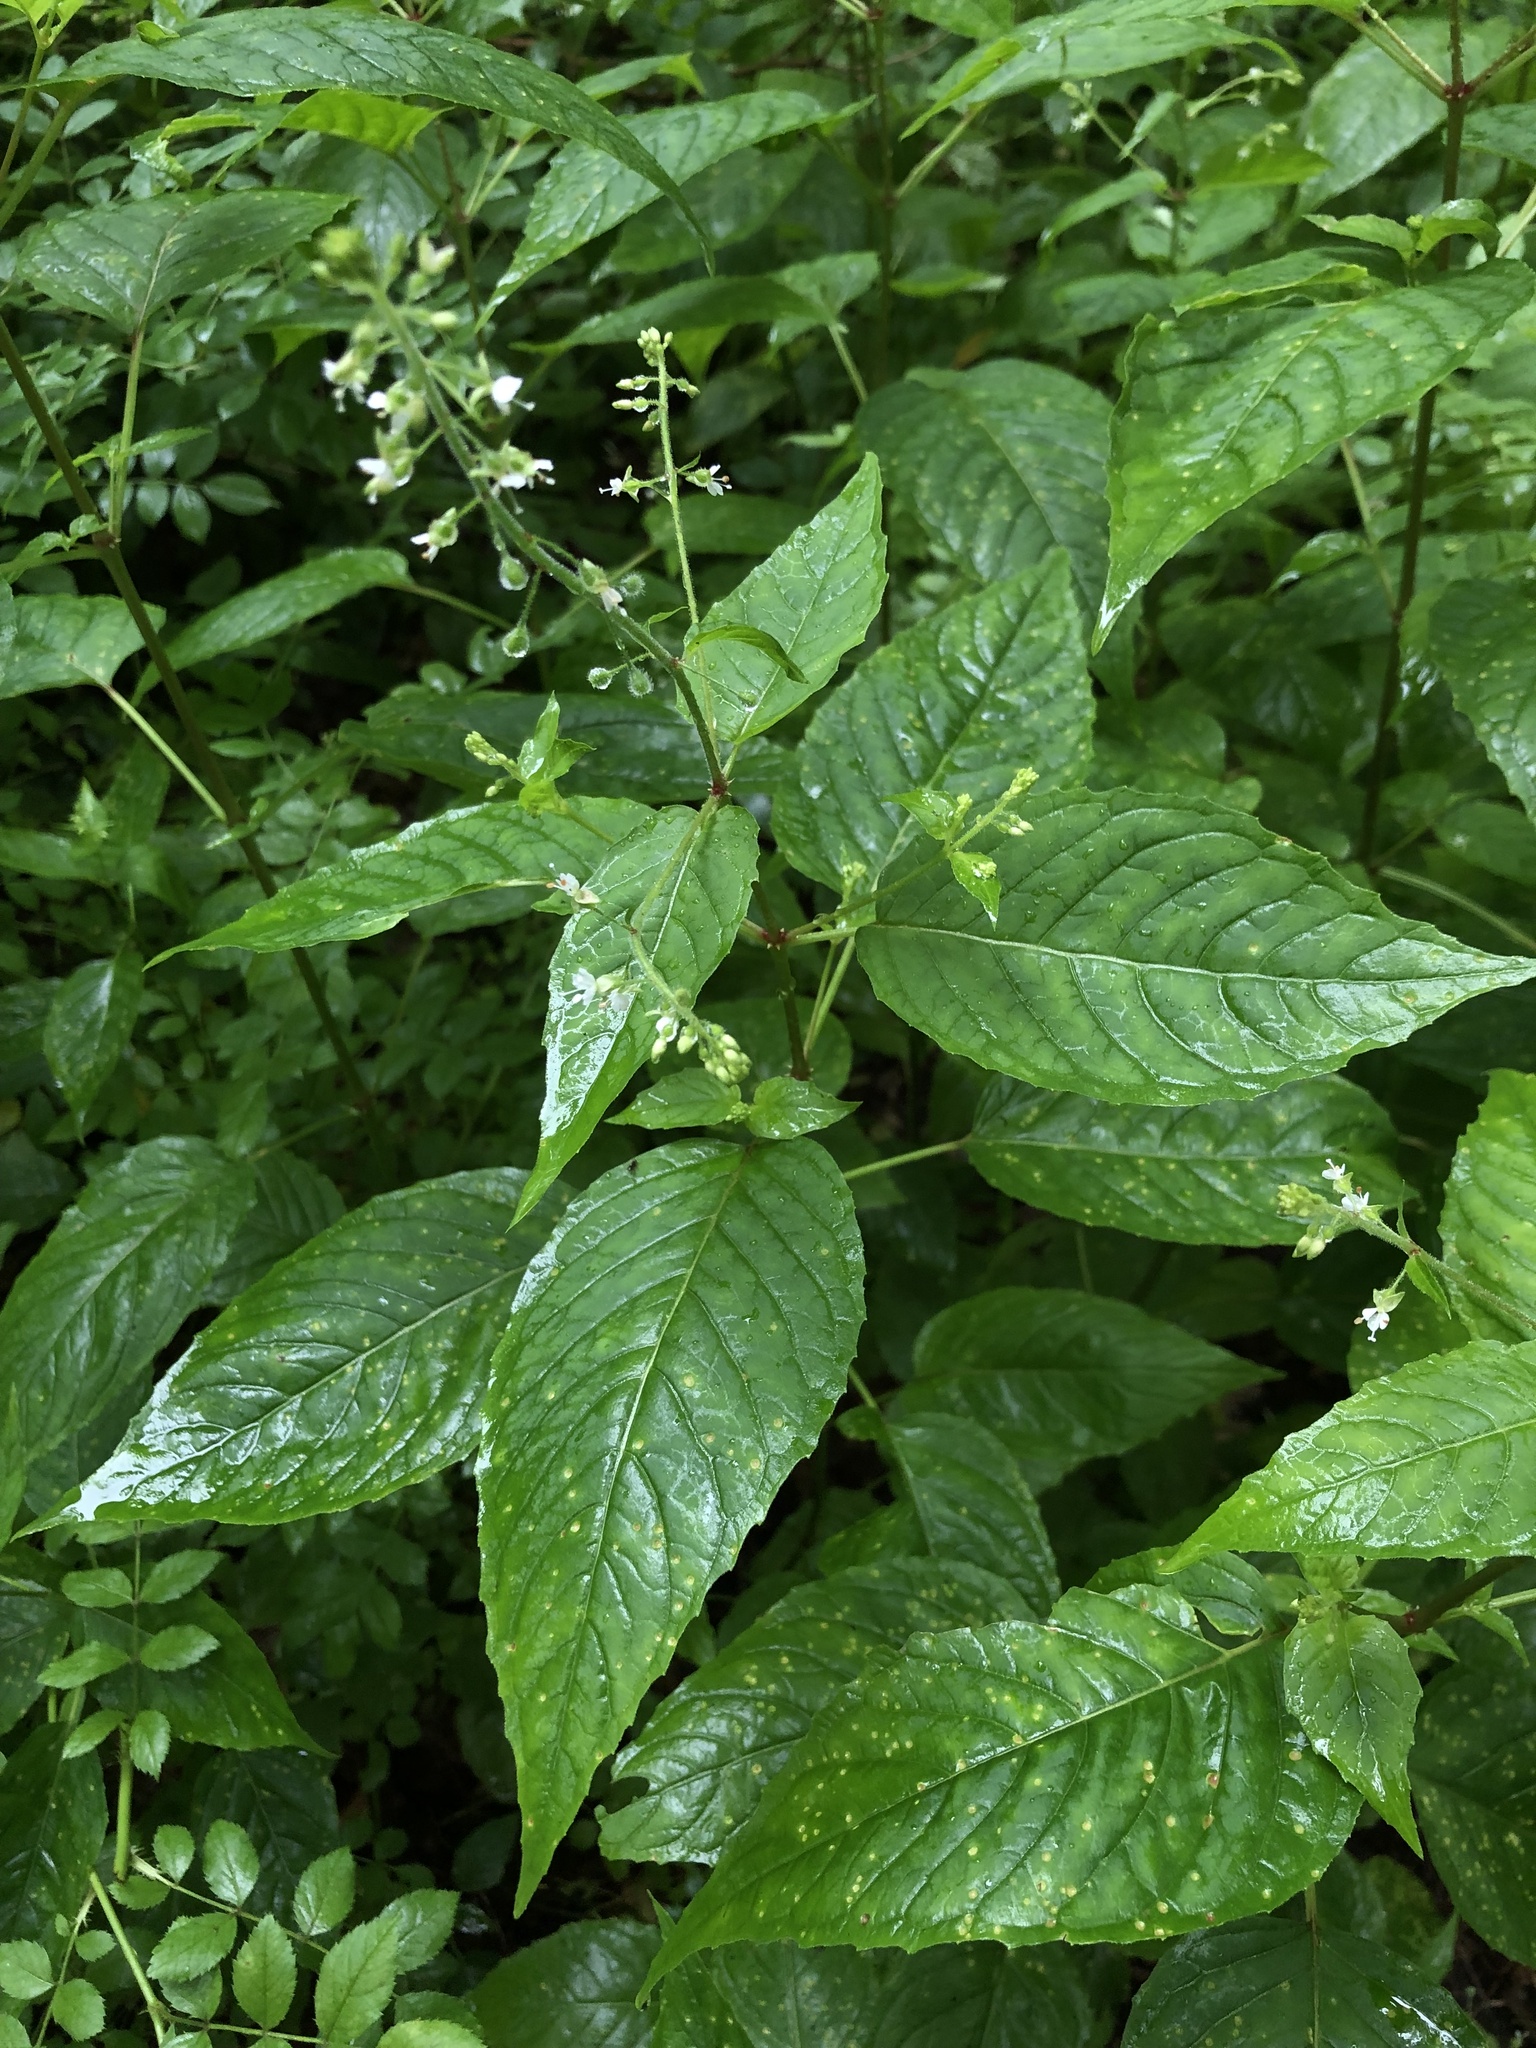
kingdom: Plantae
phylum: Tracheophyta
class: Magnoliopsida
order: Myrtales
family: Onagraceae
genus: Circaea
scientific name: Circaea canadensis
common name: Broad-leaved enchanter's nightshade
